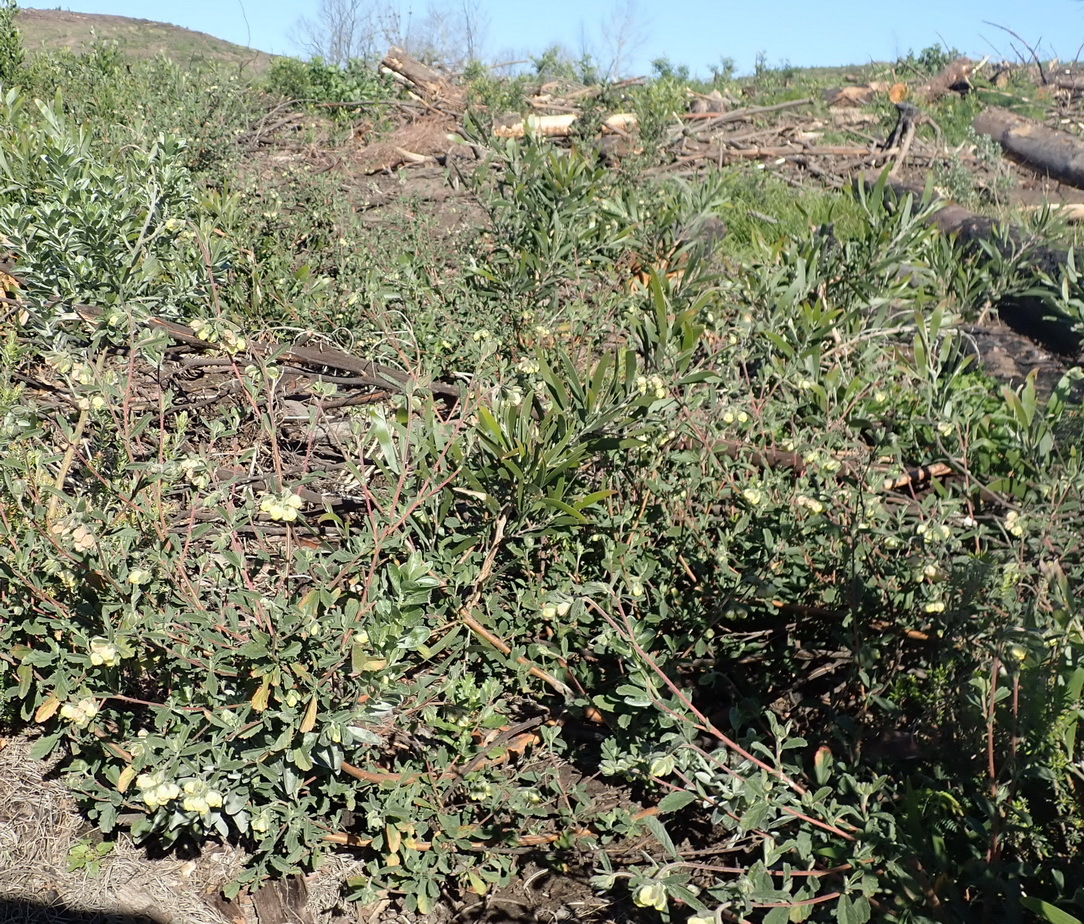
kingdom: Plantae
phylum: Tracheophyta
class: Magnoliopsida
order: Malvales
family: Malvaceae
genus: Hermannia
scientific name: Hermannia hyssopifolia
